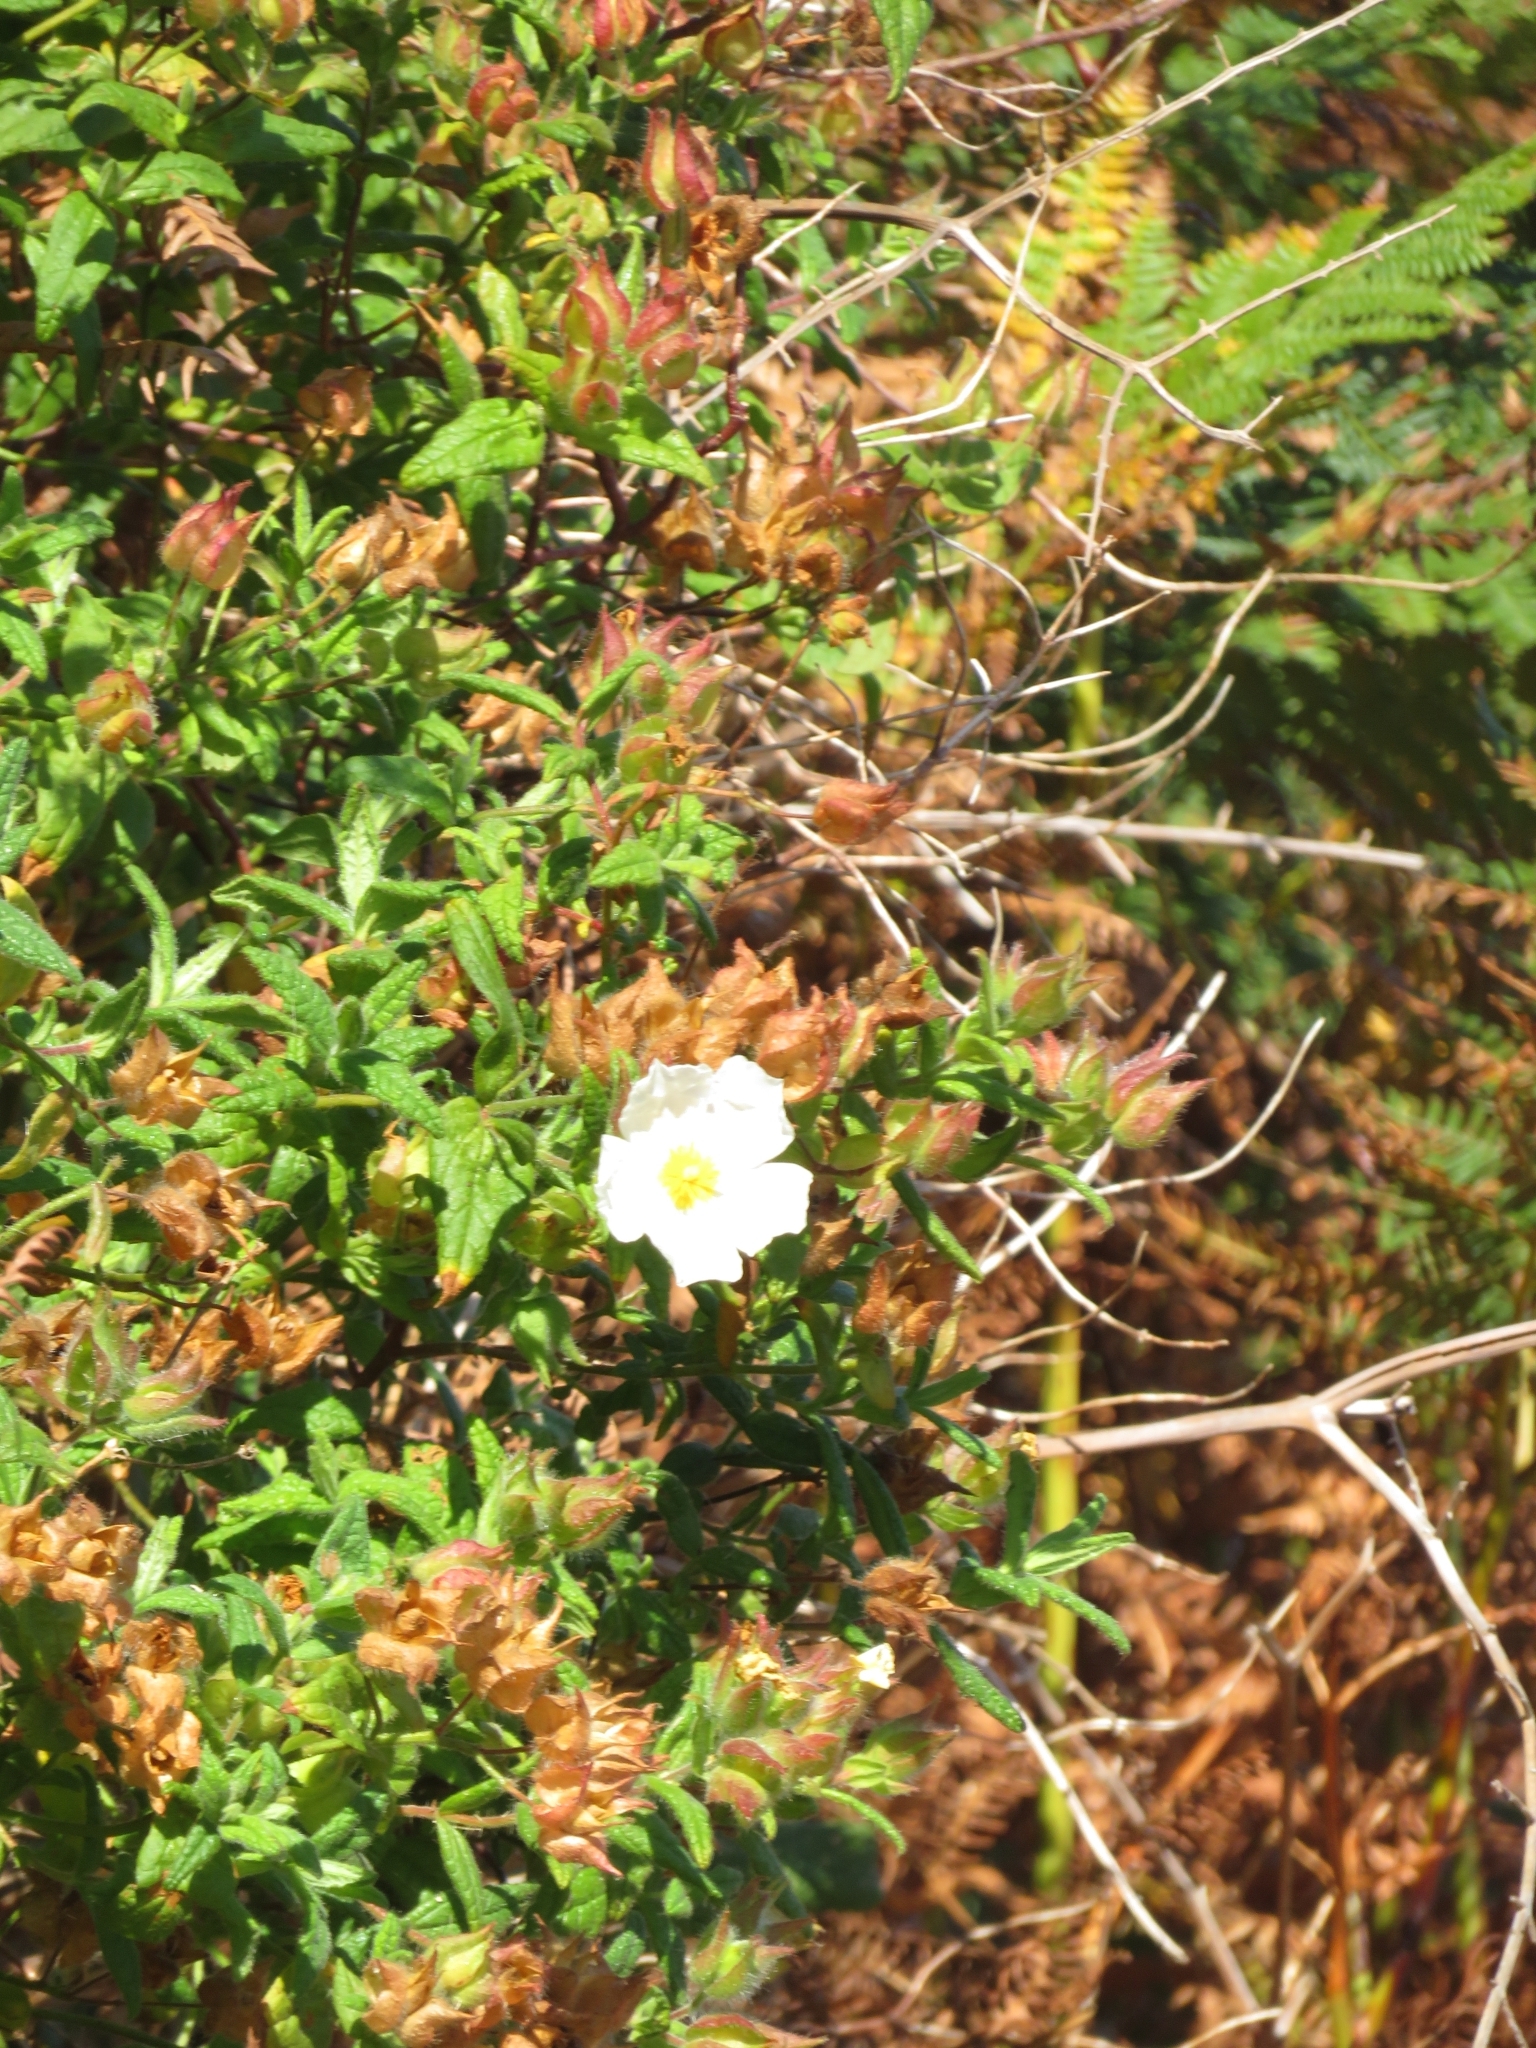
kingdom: Plantae
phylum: Tracheophyta
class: Magnoliopsida
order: Malvales
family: Cistaceae
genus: Cistus
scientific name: Cistus inflatus
